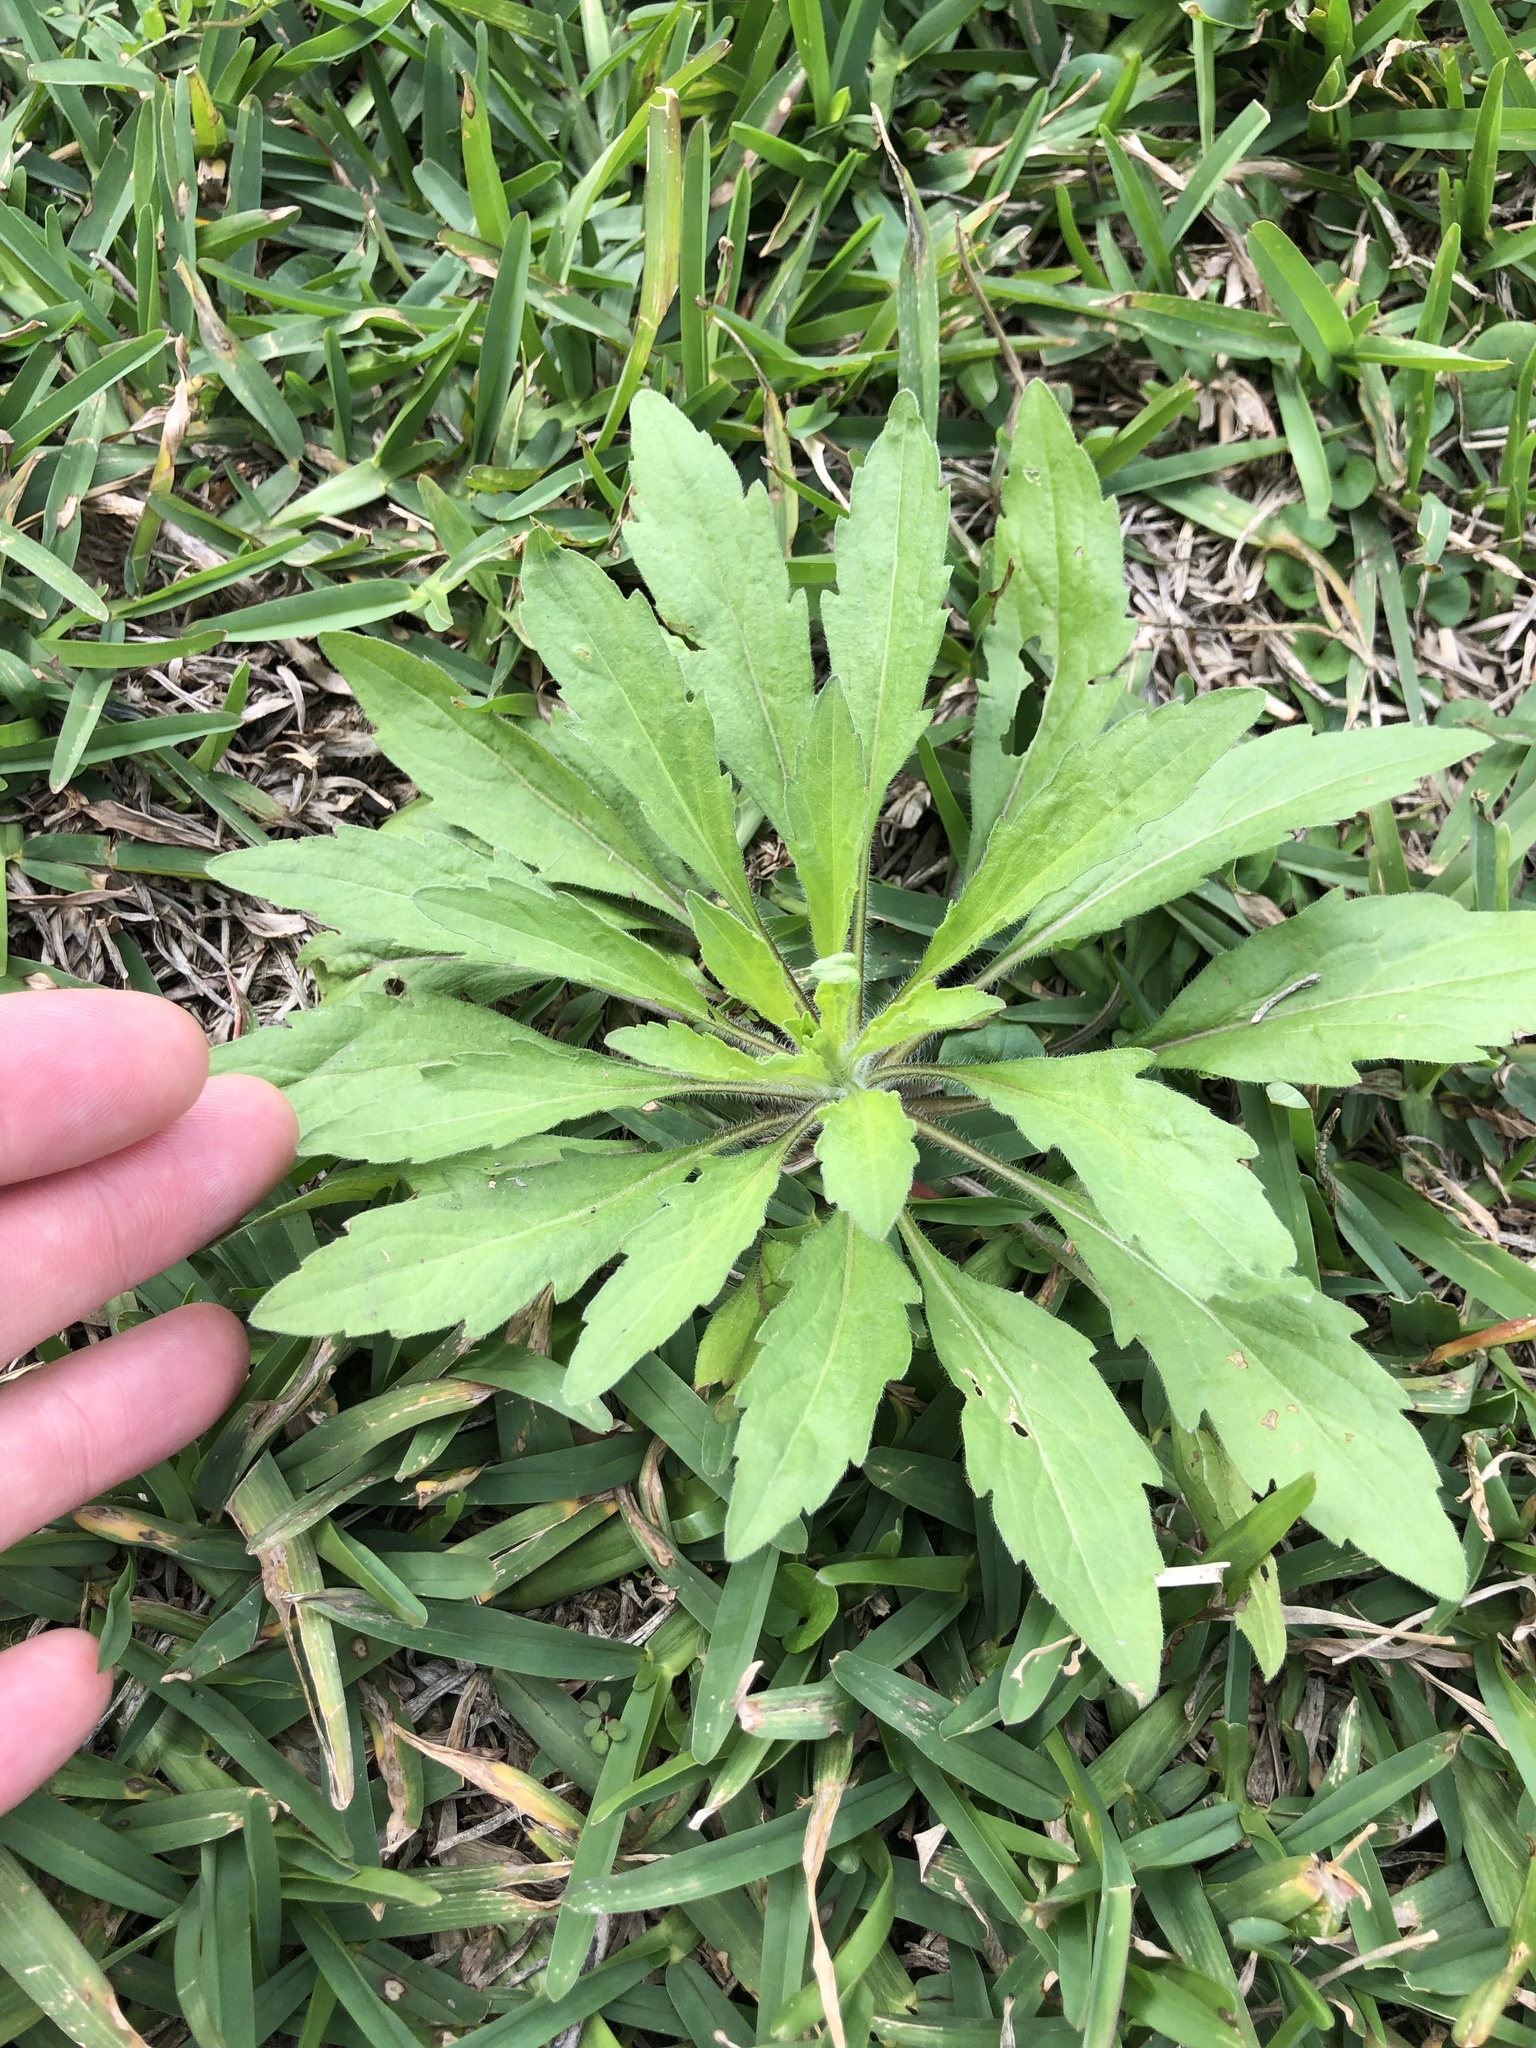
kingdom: Plantae
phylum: Tracheophyta
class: Magnoliopsida
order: Asterales
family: Asteraceae
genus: Erigeron
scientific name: Erigeron canadensis
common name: Canadian fleabane
